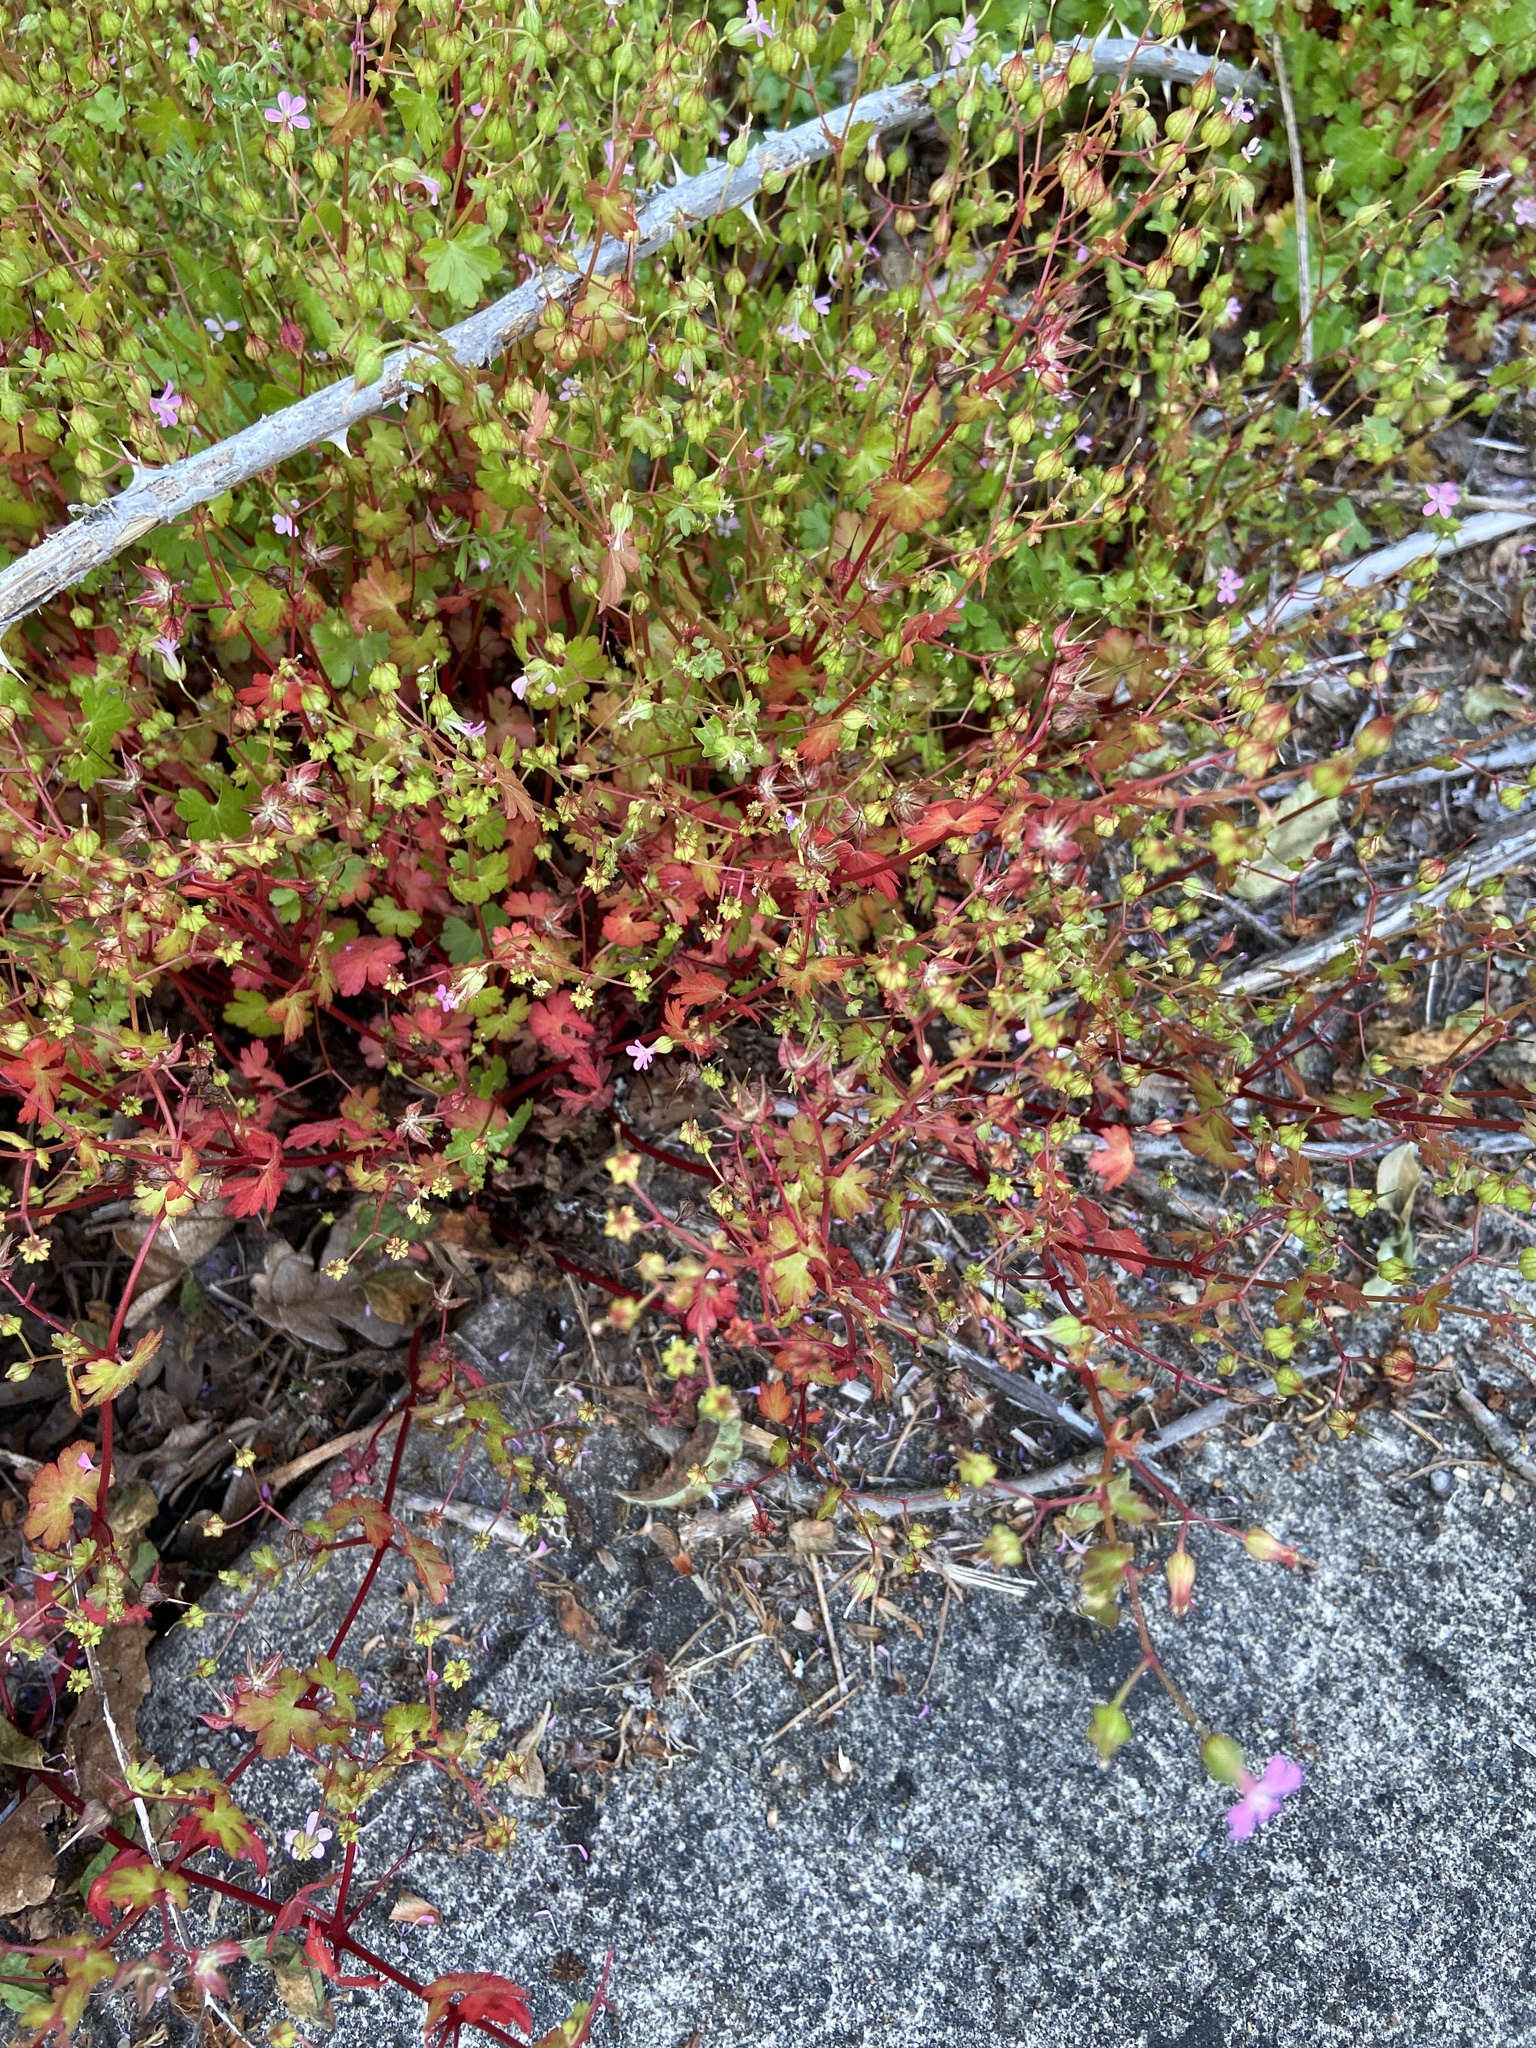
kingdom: Plantae
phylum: Tracheophyta
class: Magnoliopsida
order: Geraniales
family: Geraniaceae
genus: Geranium
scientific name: Geranium lucidum
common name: Shining crane's-bill
